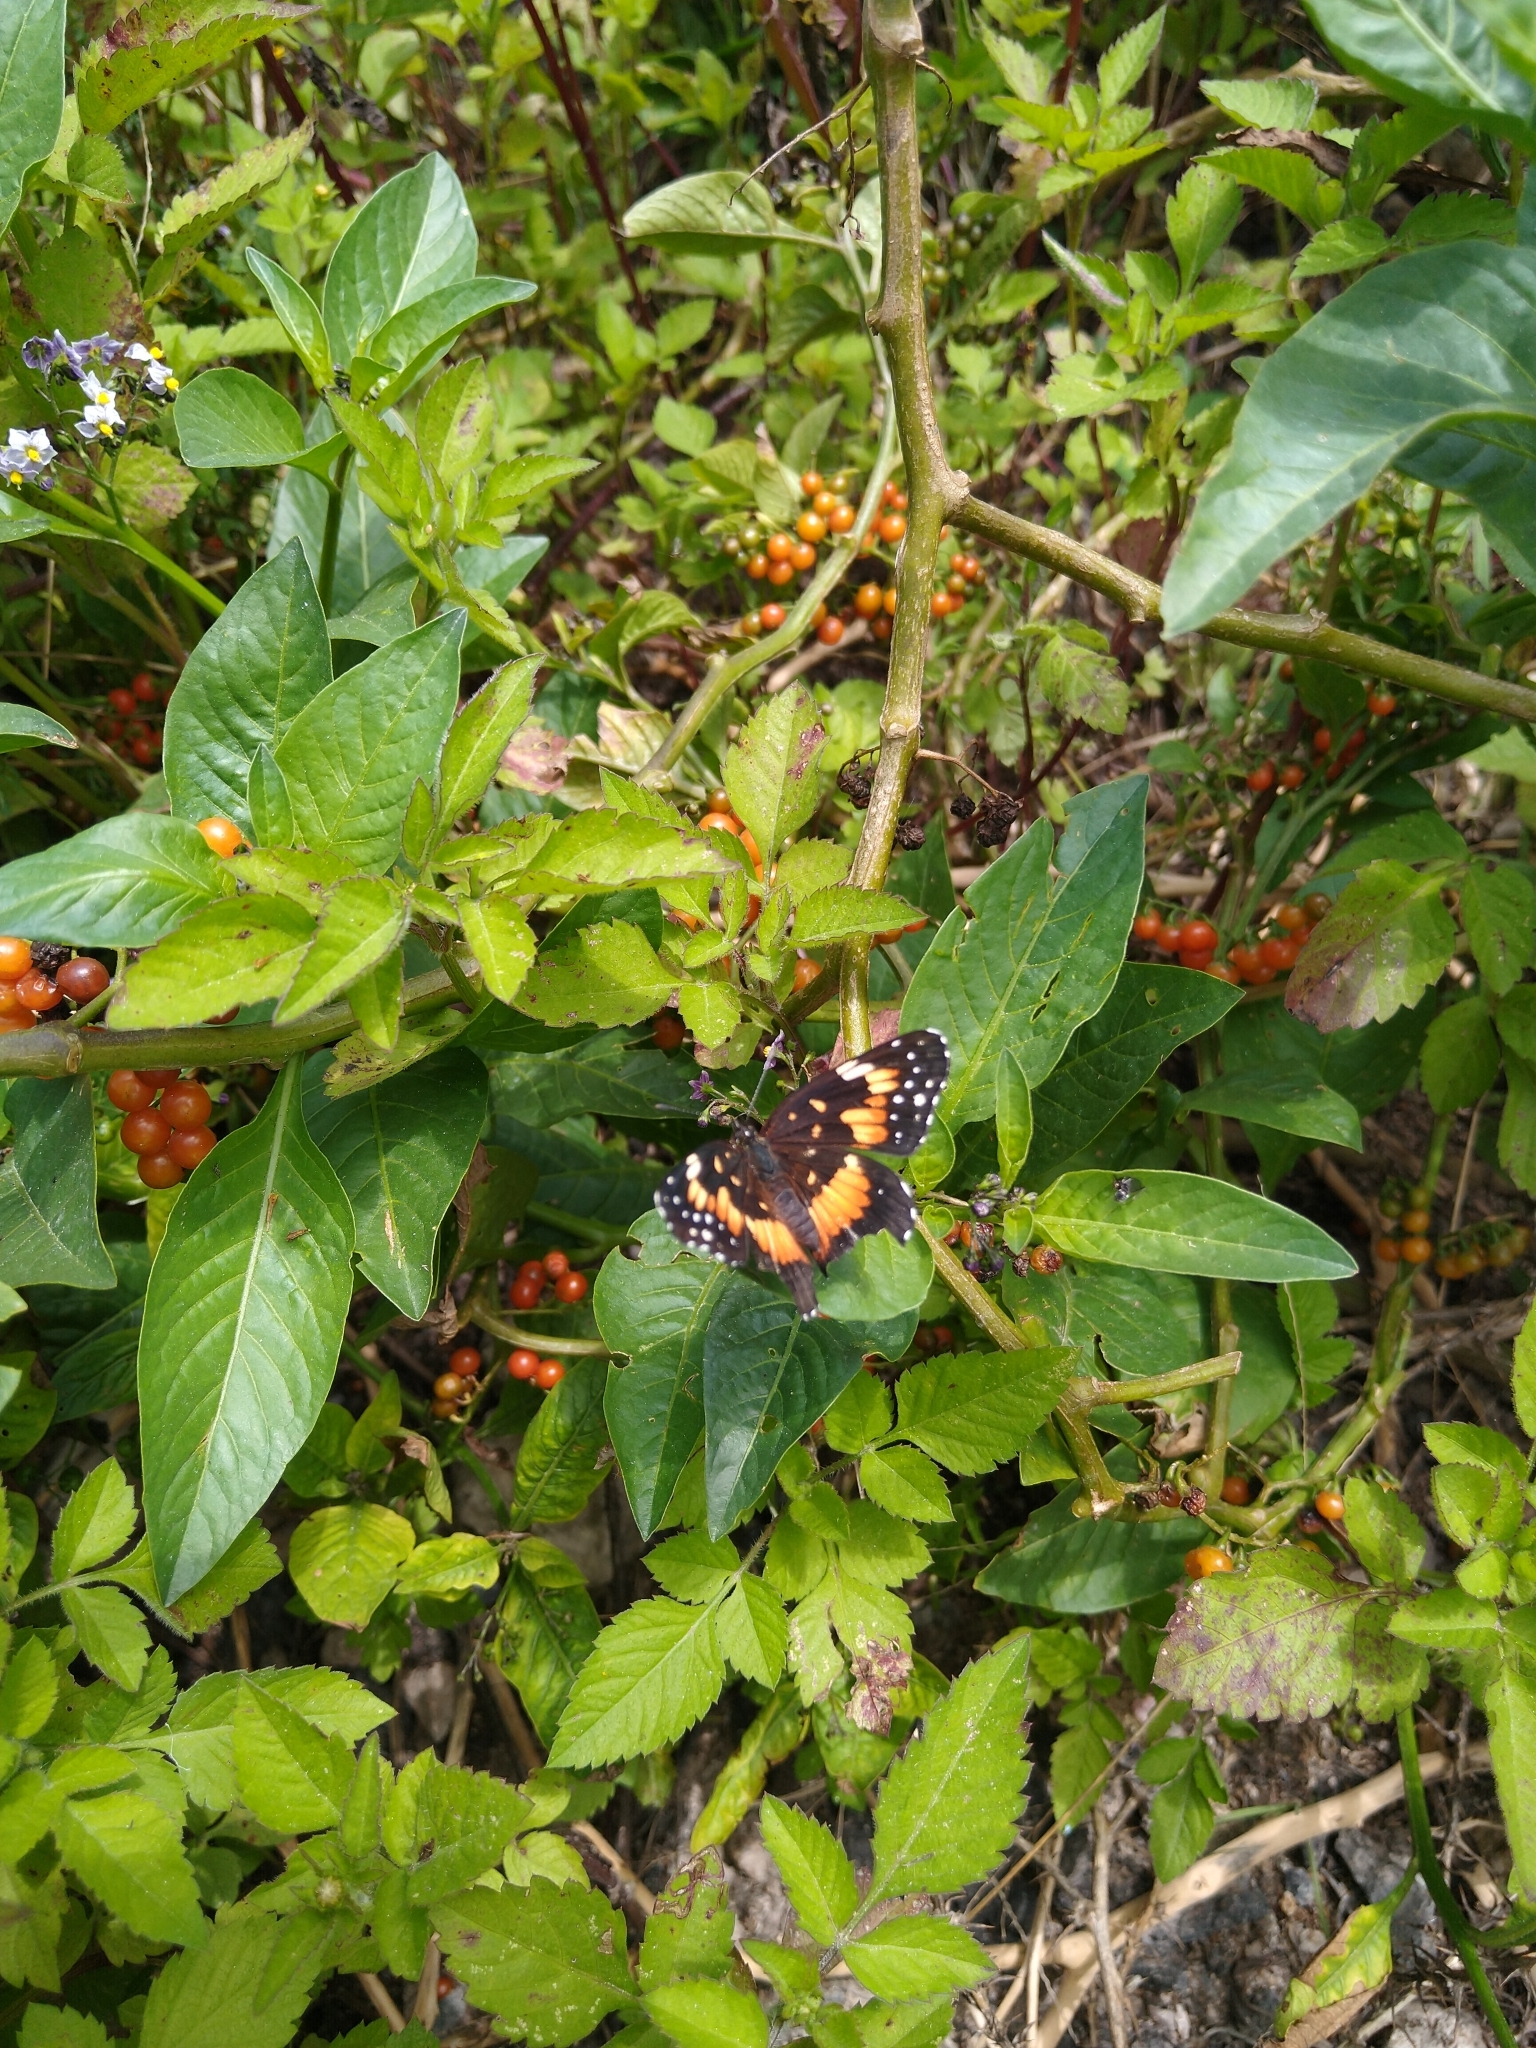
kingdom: Animalia
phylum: Arthropoda
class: Insecta
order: Lepidoptera
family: Nymphalidae
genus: Chlosyne
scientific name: Chlosyne lacinia
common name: Bordered patch
